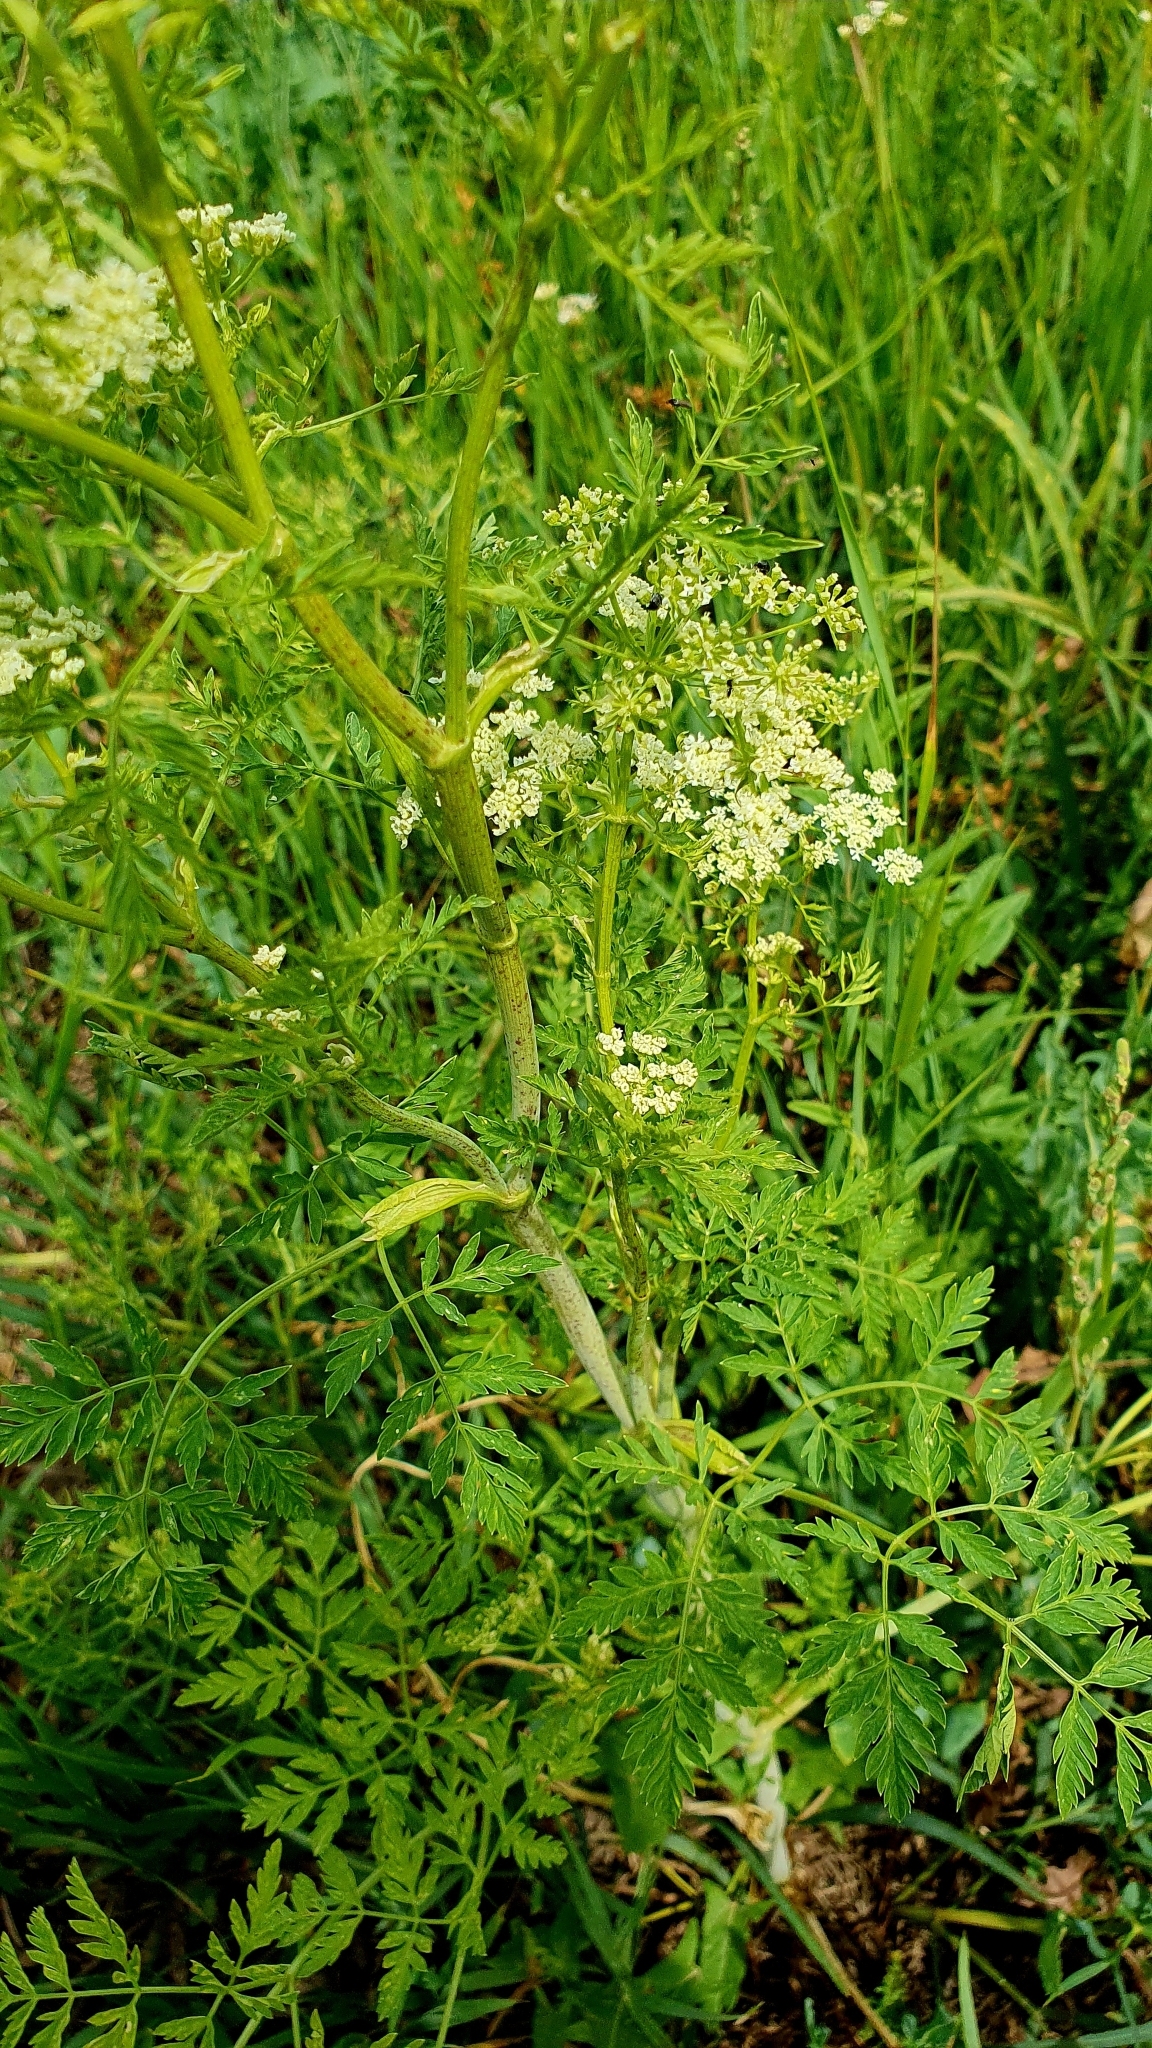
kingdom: Plantae
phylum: Tracheophyta
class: Magnoliopsida
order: Apiales
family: Apiaceae
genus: Conium
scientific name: Conium maculatum
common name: Hemlock
